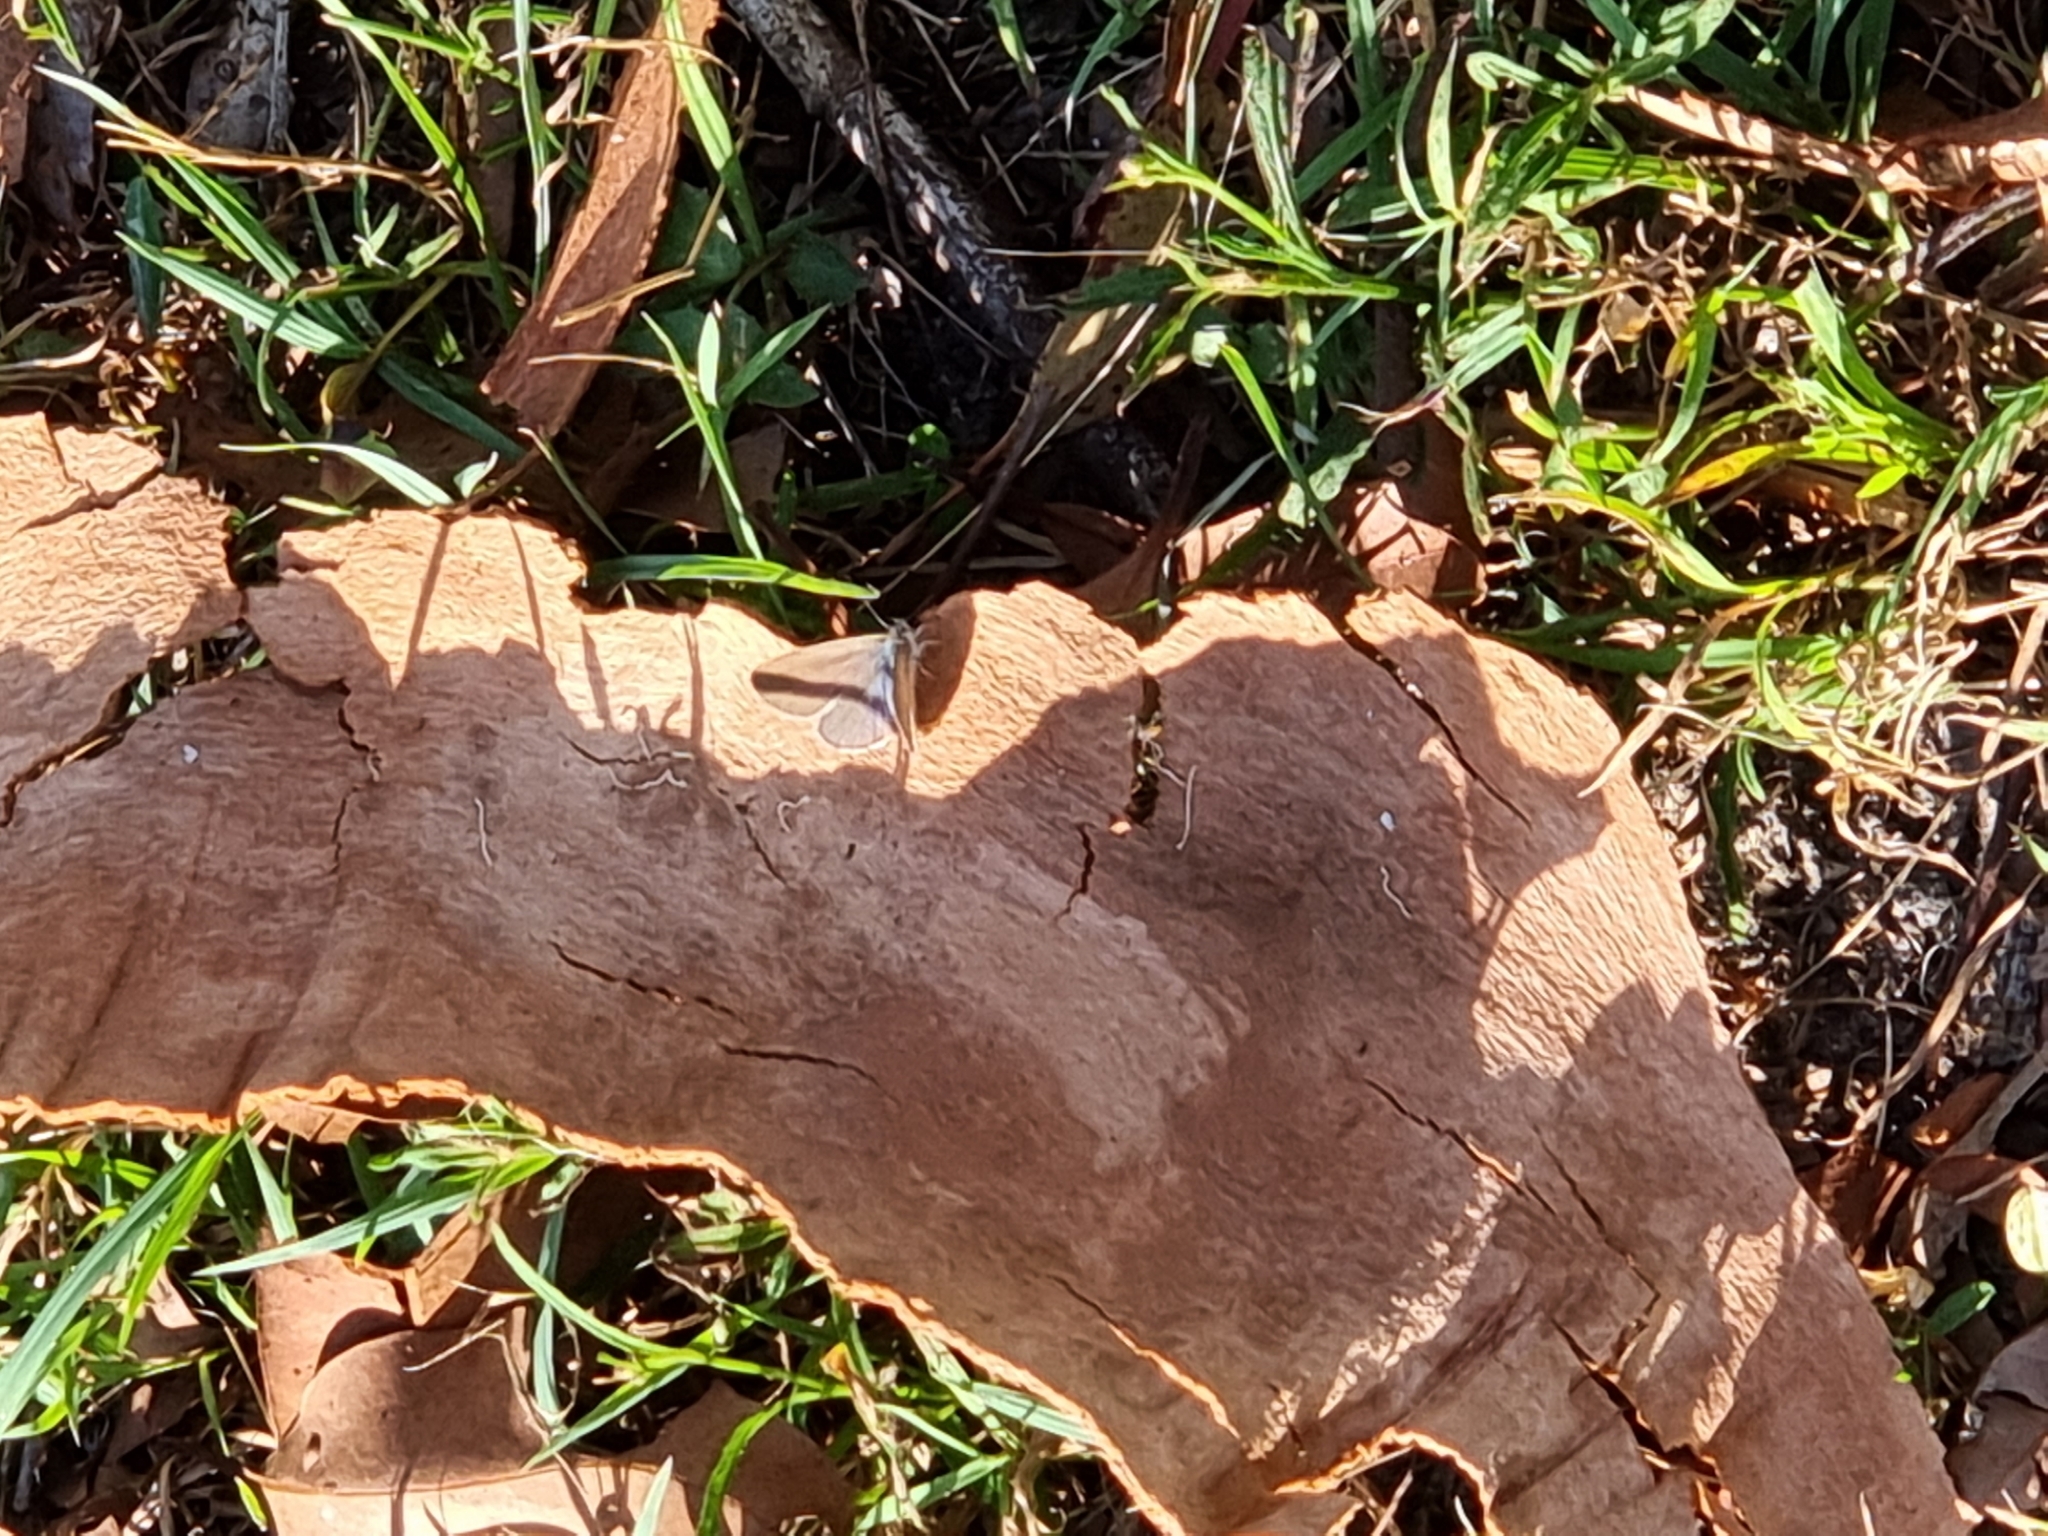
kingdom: Animalia
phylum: Arthropoda
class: Insecta
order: Lepidoptera
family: Lycaenidae
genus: Zizina
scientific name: Zizina labradus
